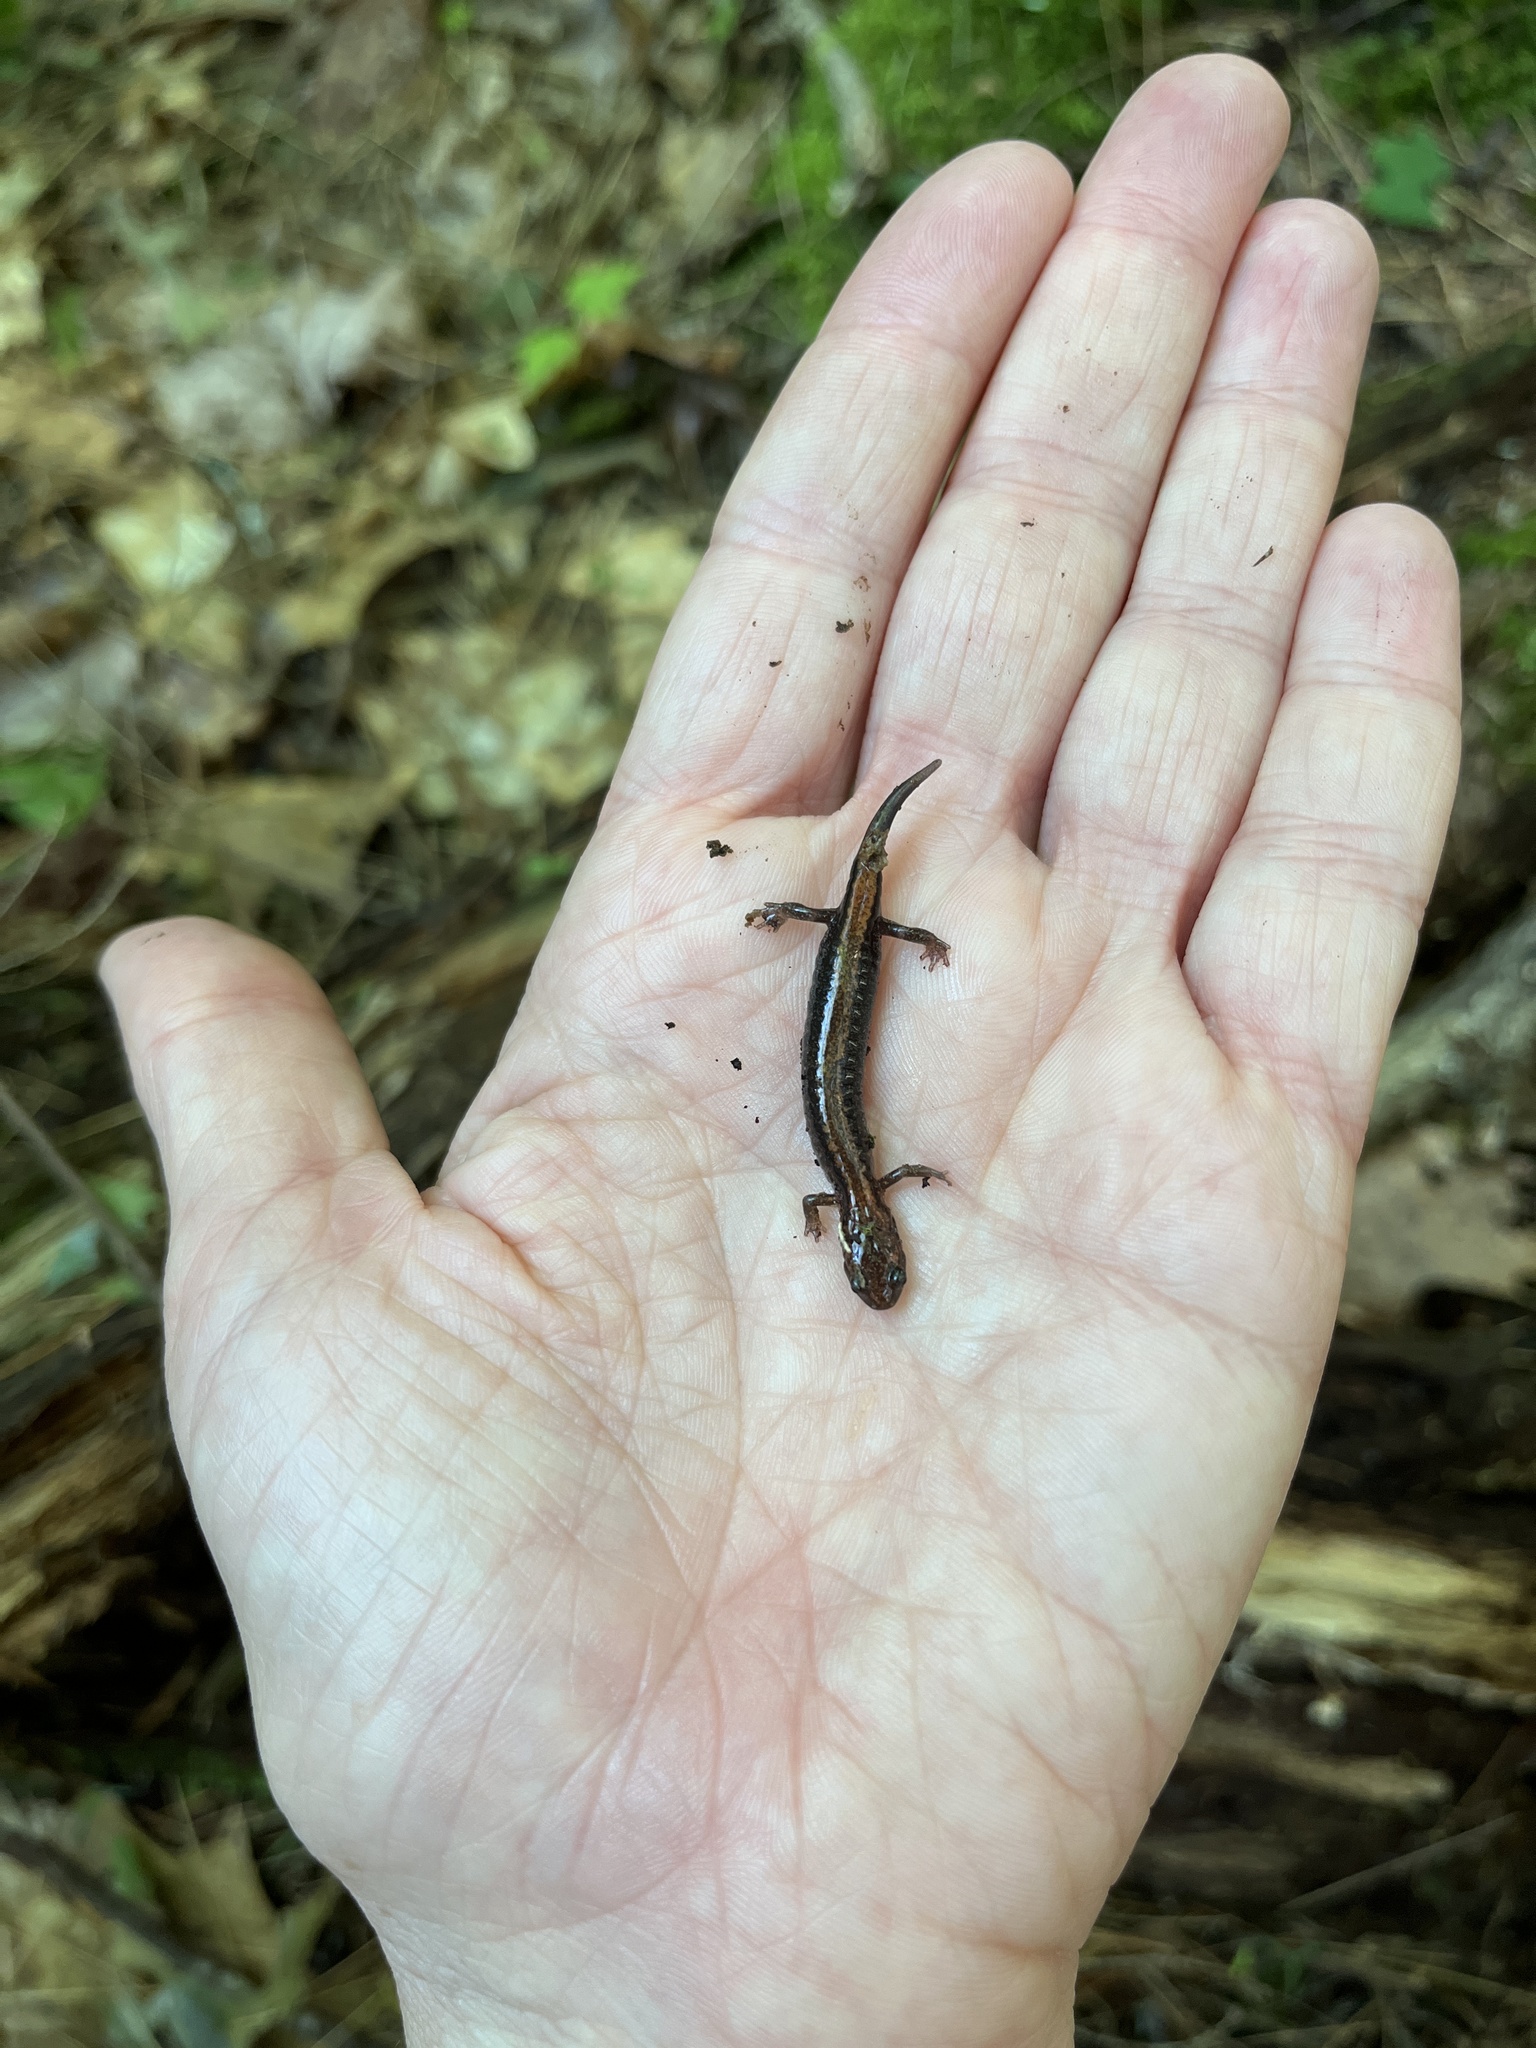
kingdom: Animalia
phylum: Chordata
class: Amphibia
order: Caudata
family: Plethodontidae
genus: Plethodon
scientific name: Plethodon cinereus
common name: Redback salamander
